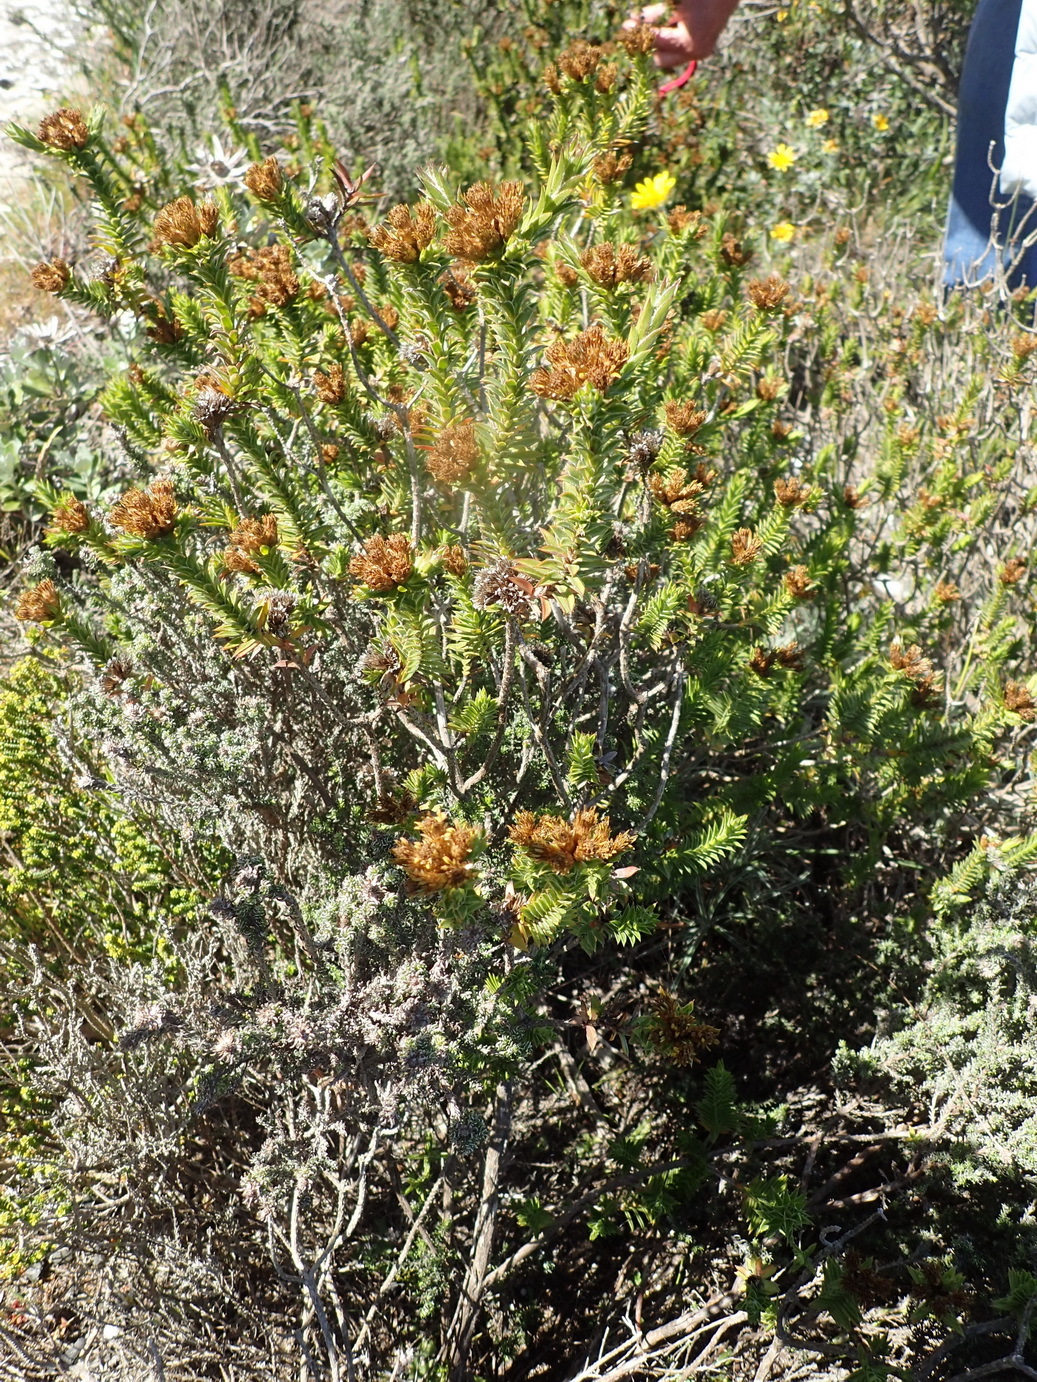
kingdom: Plantae
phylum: Tracheophyta
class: Magnoliopsida
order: Asterales
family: Asteraceae
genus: Oedera
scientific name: Oedera steyniae
